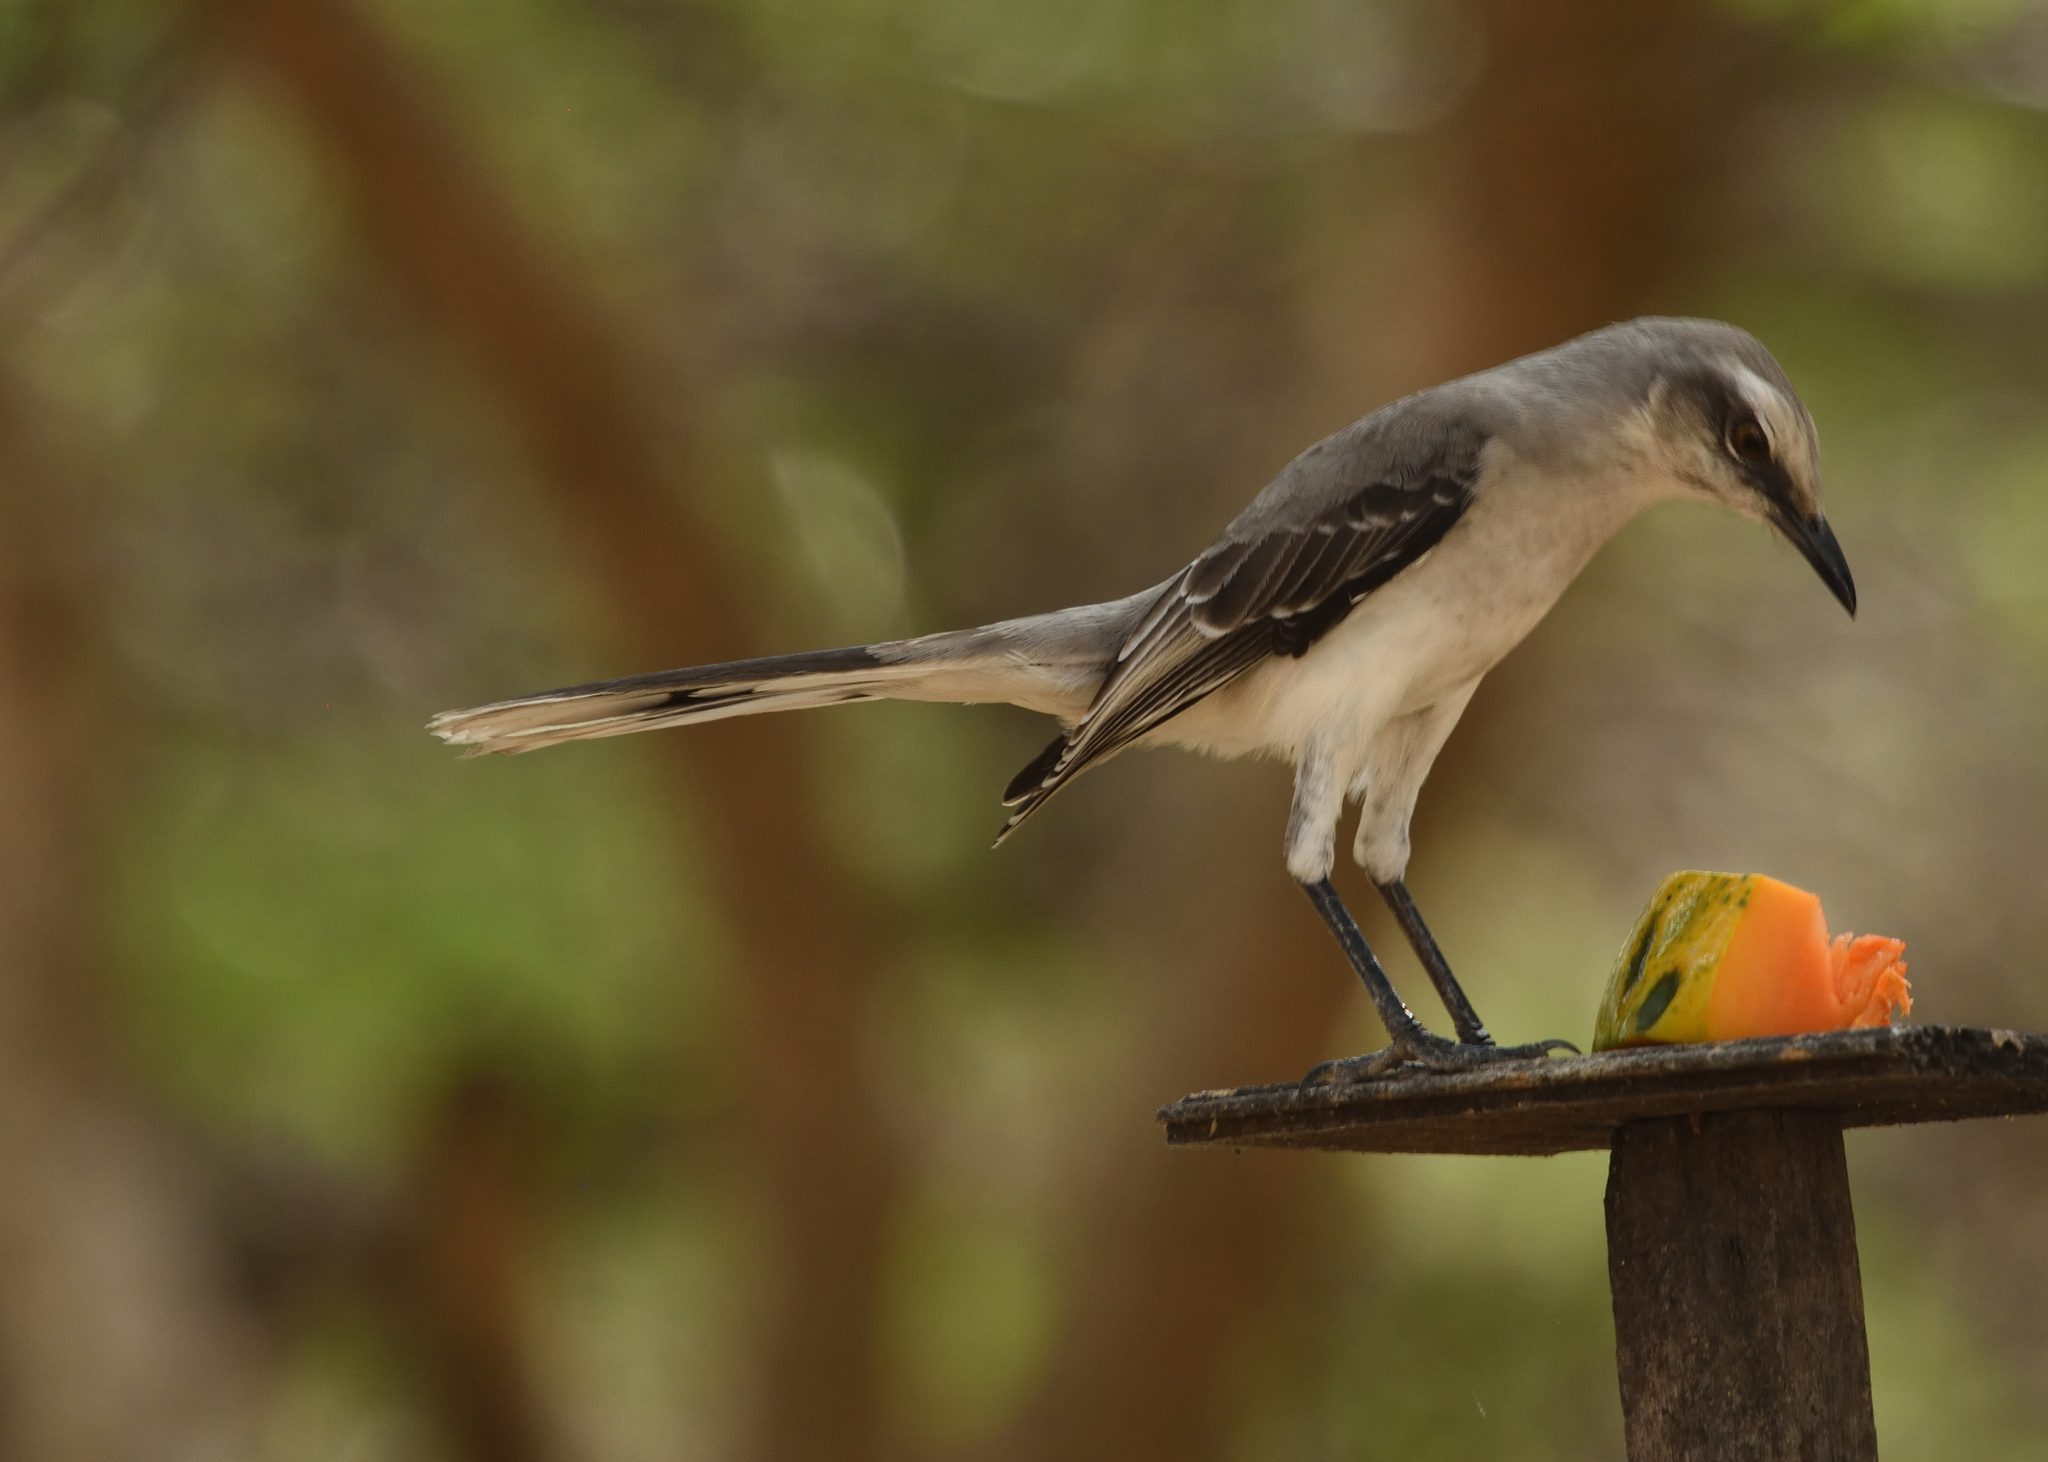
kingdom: Animalia
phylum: Chordata
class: Aves
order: Passeriformes
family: Mimidae
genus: Mimus
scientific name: Mimus gilvus
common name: Tropical mockingbird
